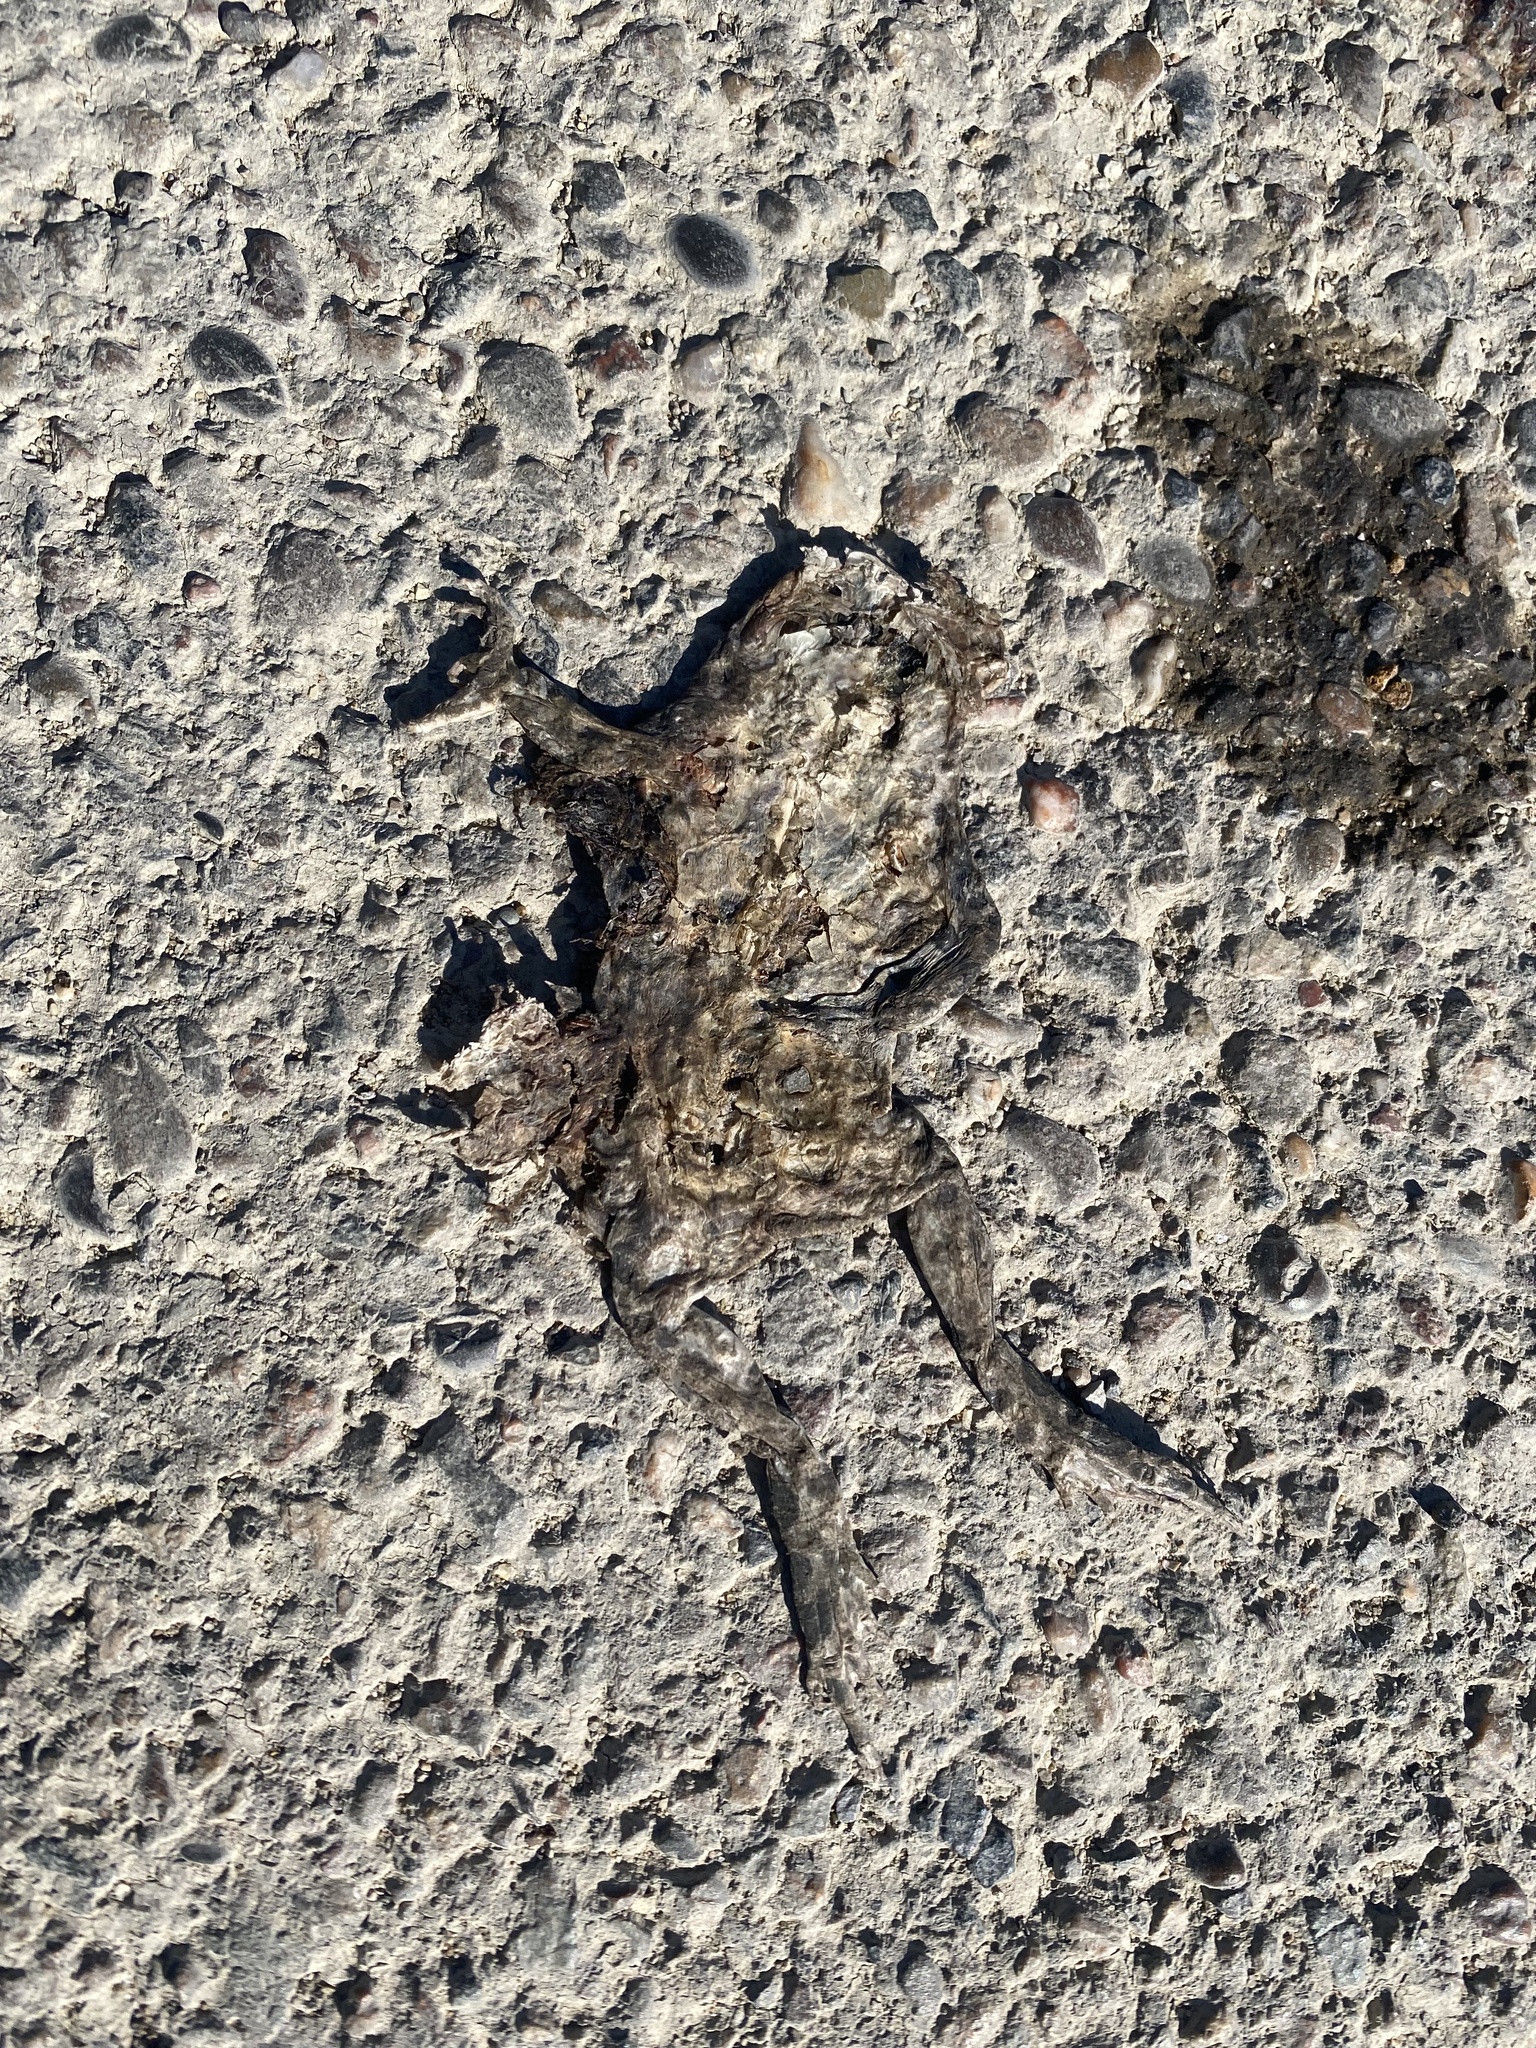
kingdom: Animalia
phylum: Chordata
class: Amphibia
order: Anura
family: Bufonidae
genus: Bufotes
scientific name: Bufotes viridis
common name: European green toad
